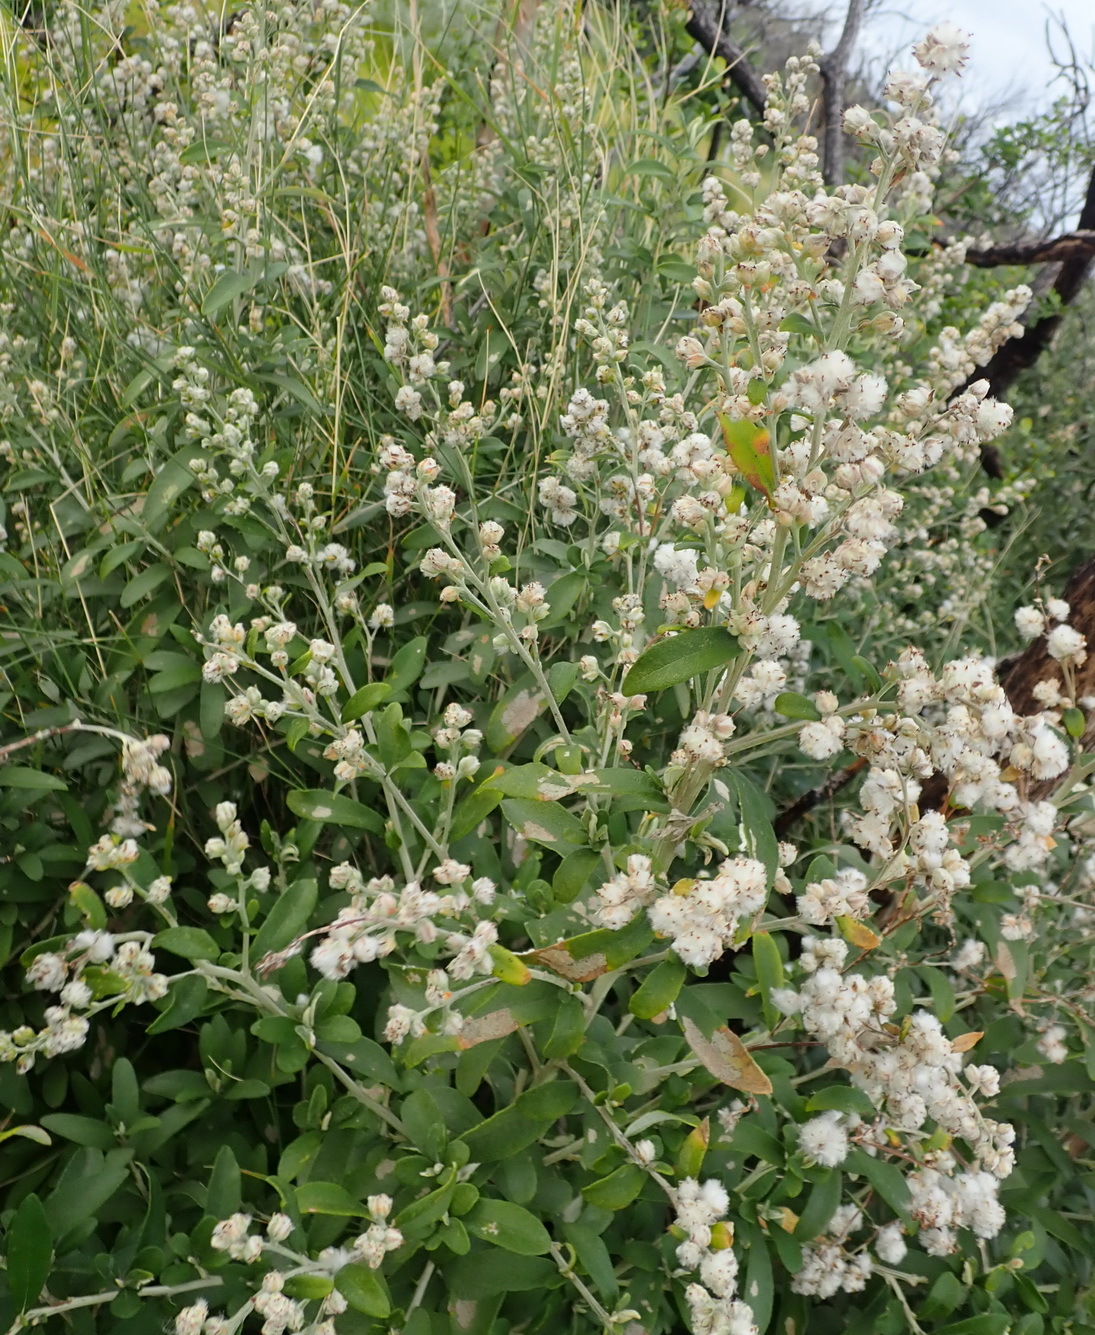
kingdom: Plantae
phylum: Tracheophyta
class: Magnoliopsida
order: Asterales
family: Asteraceae
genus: Tarchonanthus
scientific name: Tarchonanthus littoralis
